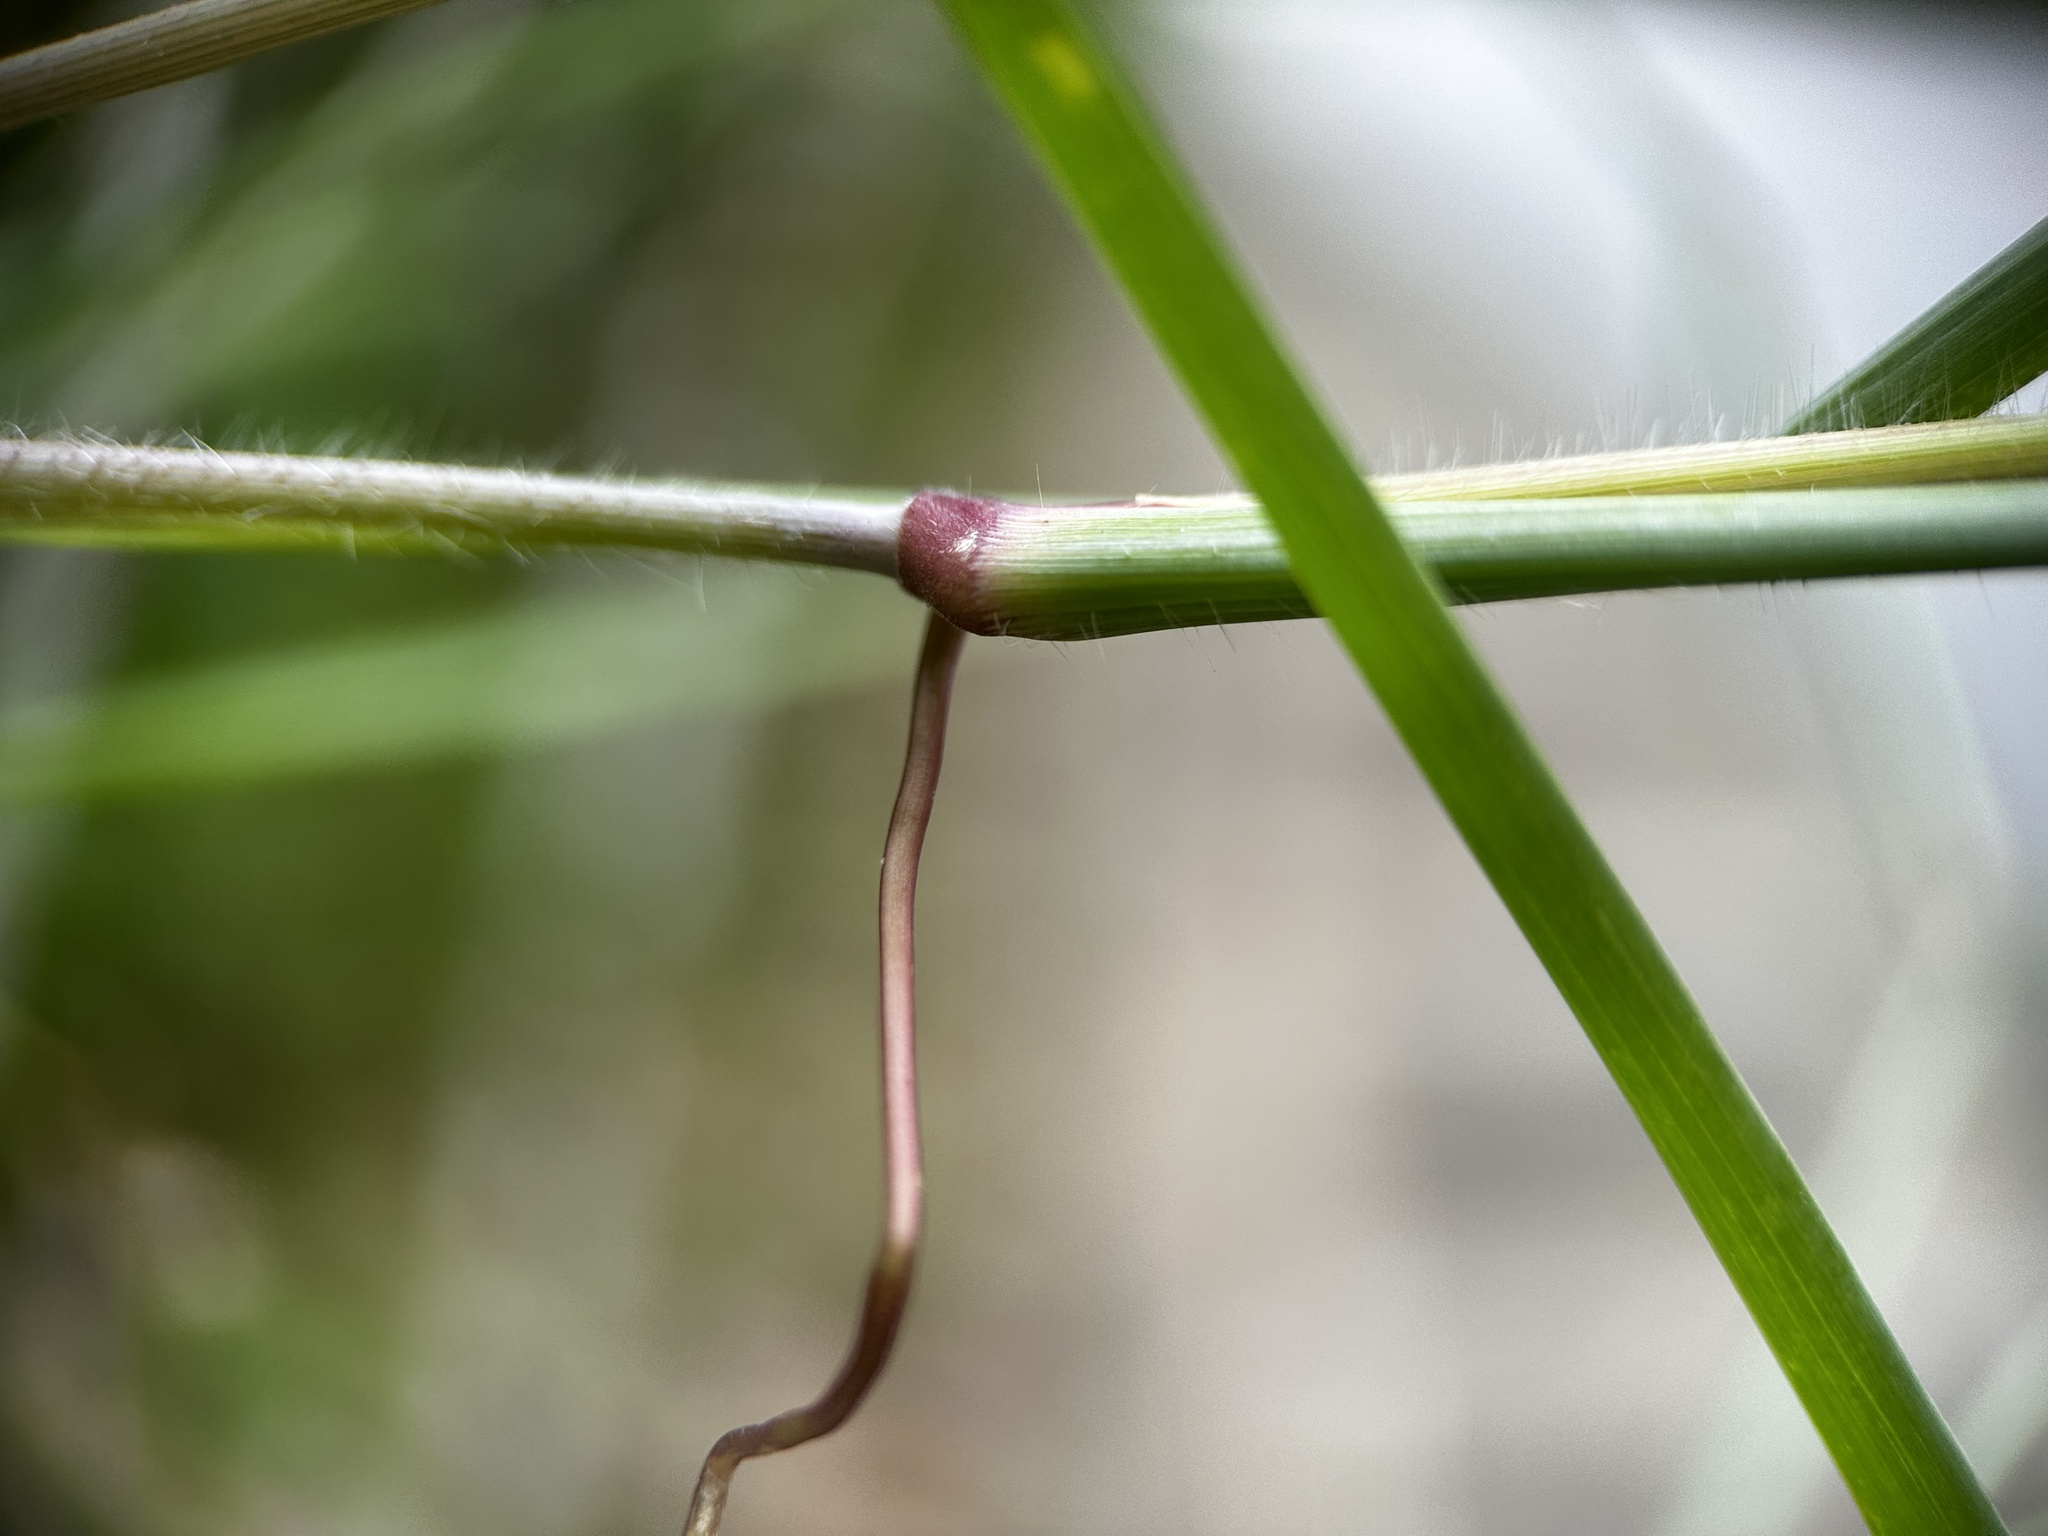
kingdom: Plantae
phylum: Tracheophyta
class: Liliopsida
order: Poales
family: Poaceae
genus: Melinis
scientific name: Melinis repens
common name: Rose natal grass
